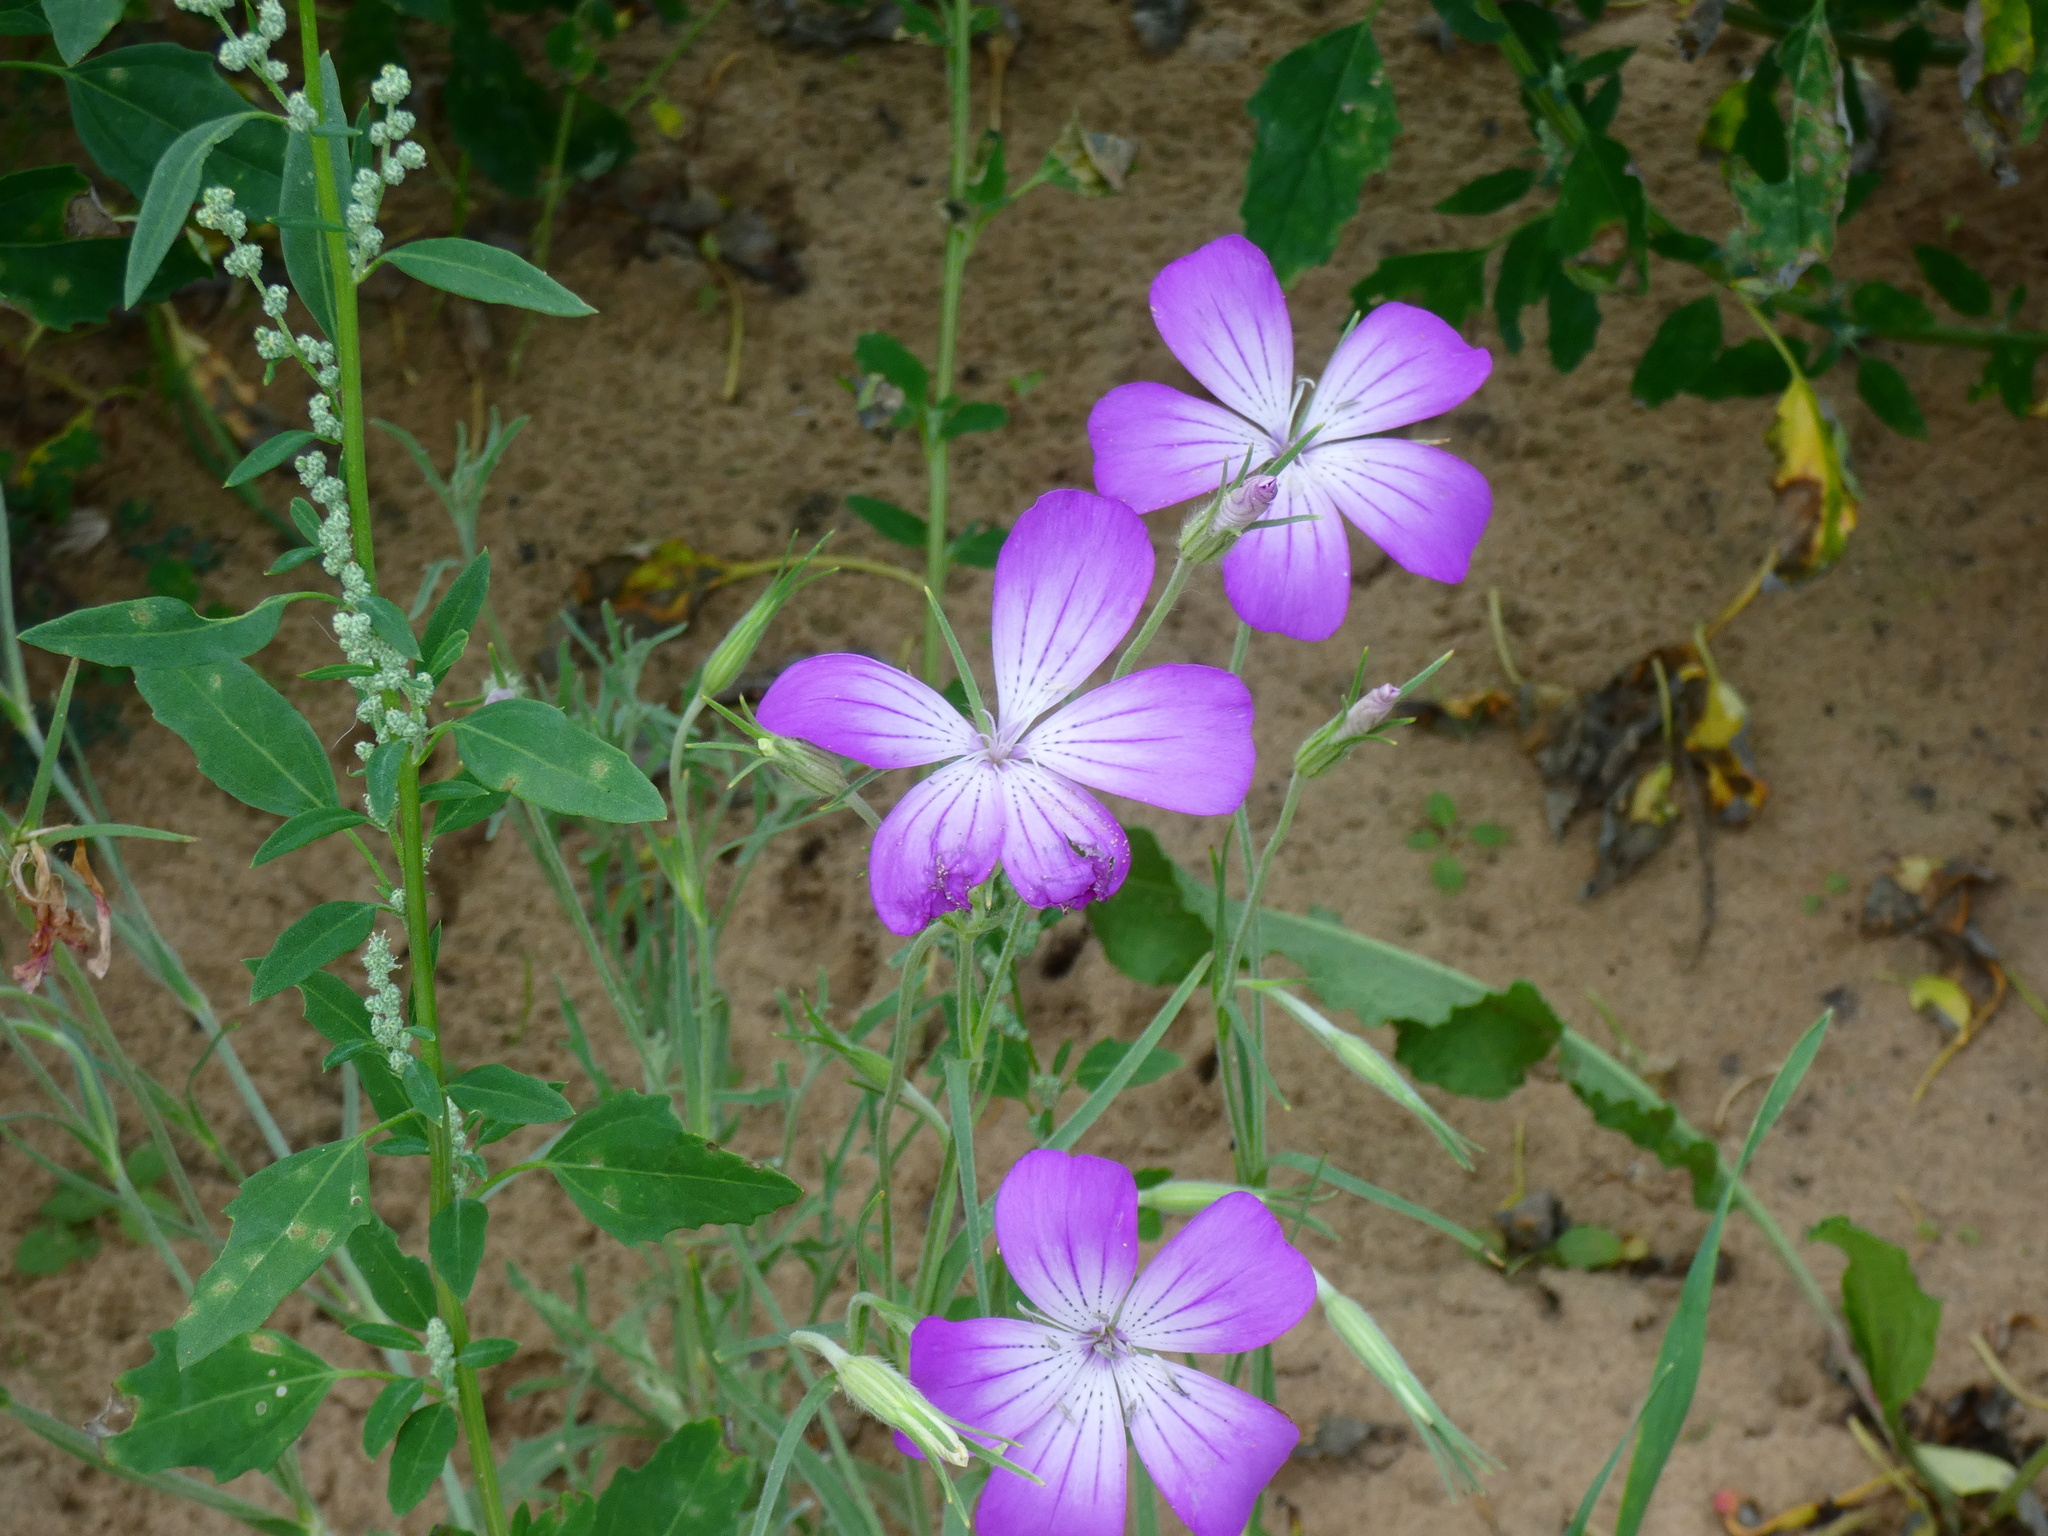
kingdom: Plantae
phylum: Tracheophyta
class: Magnoliopsida
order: Caryophyllales
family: Caryophyllaceae
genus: Agrostemma
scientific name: Agrostemma brachyloba
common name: Narrow corncockle
